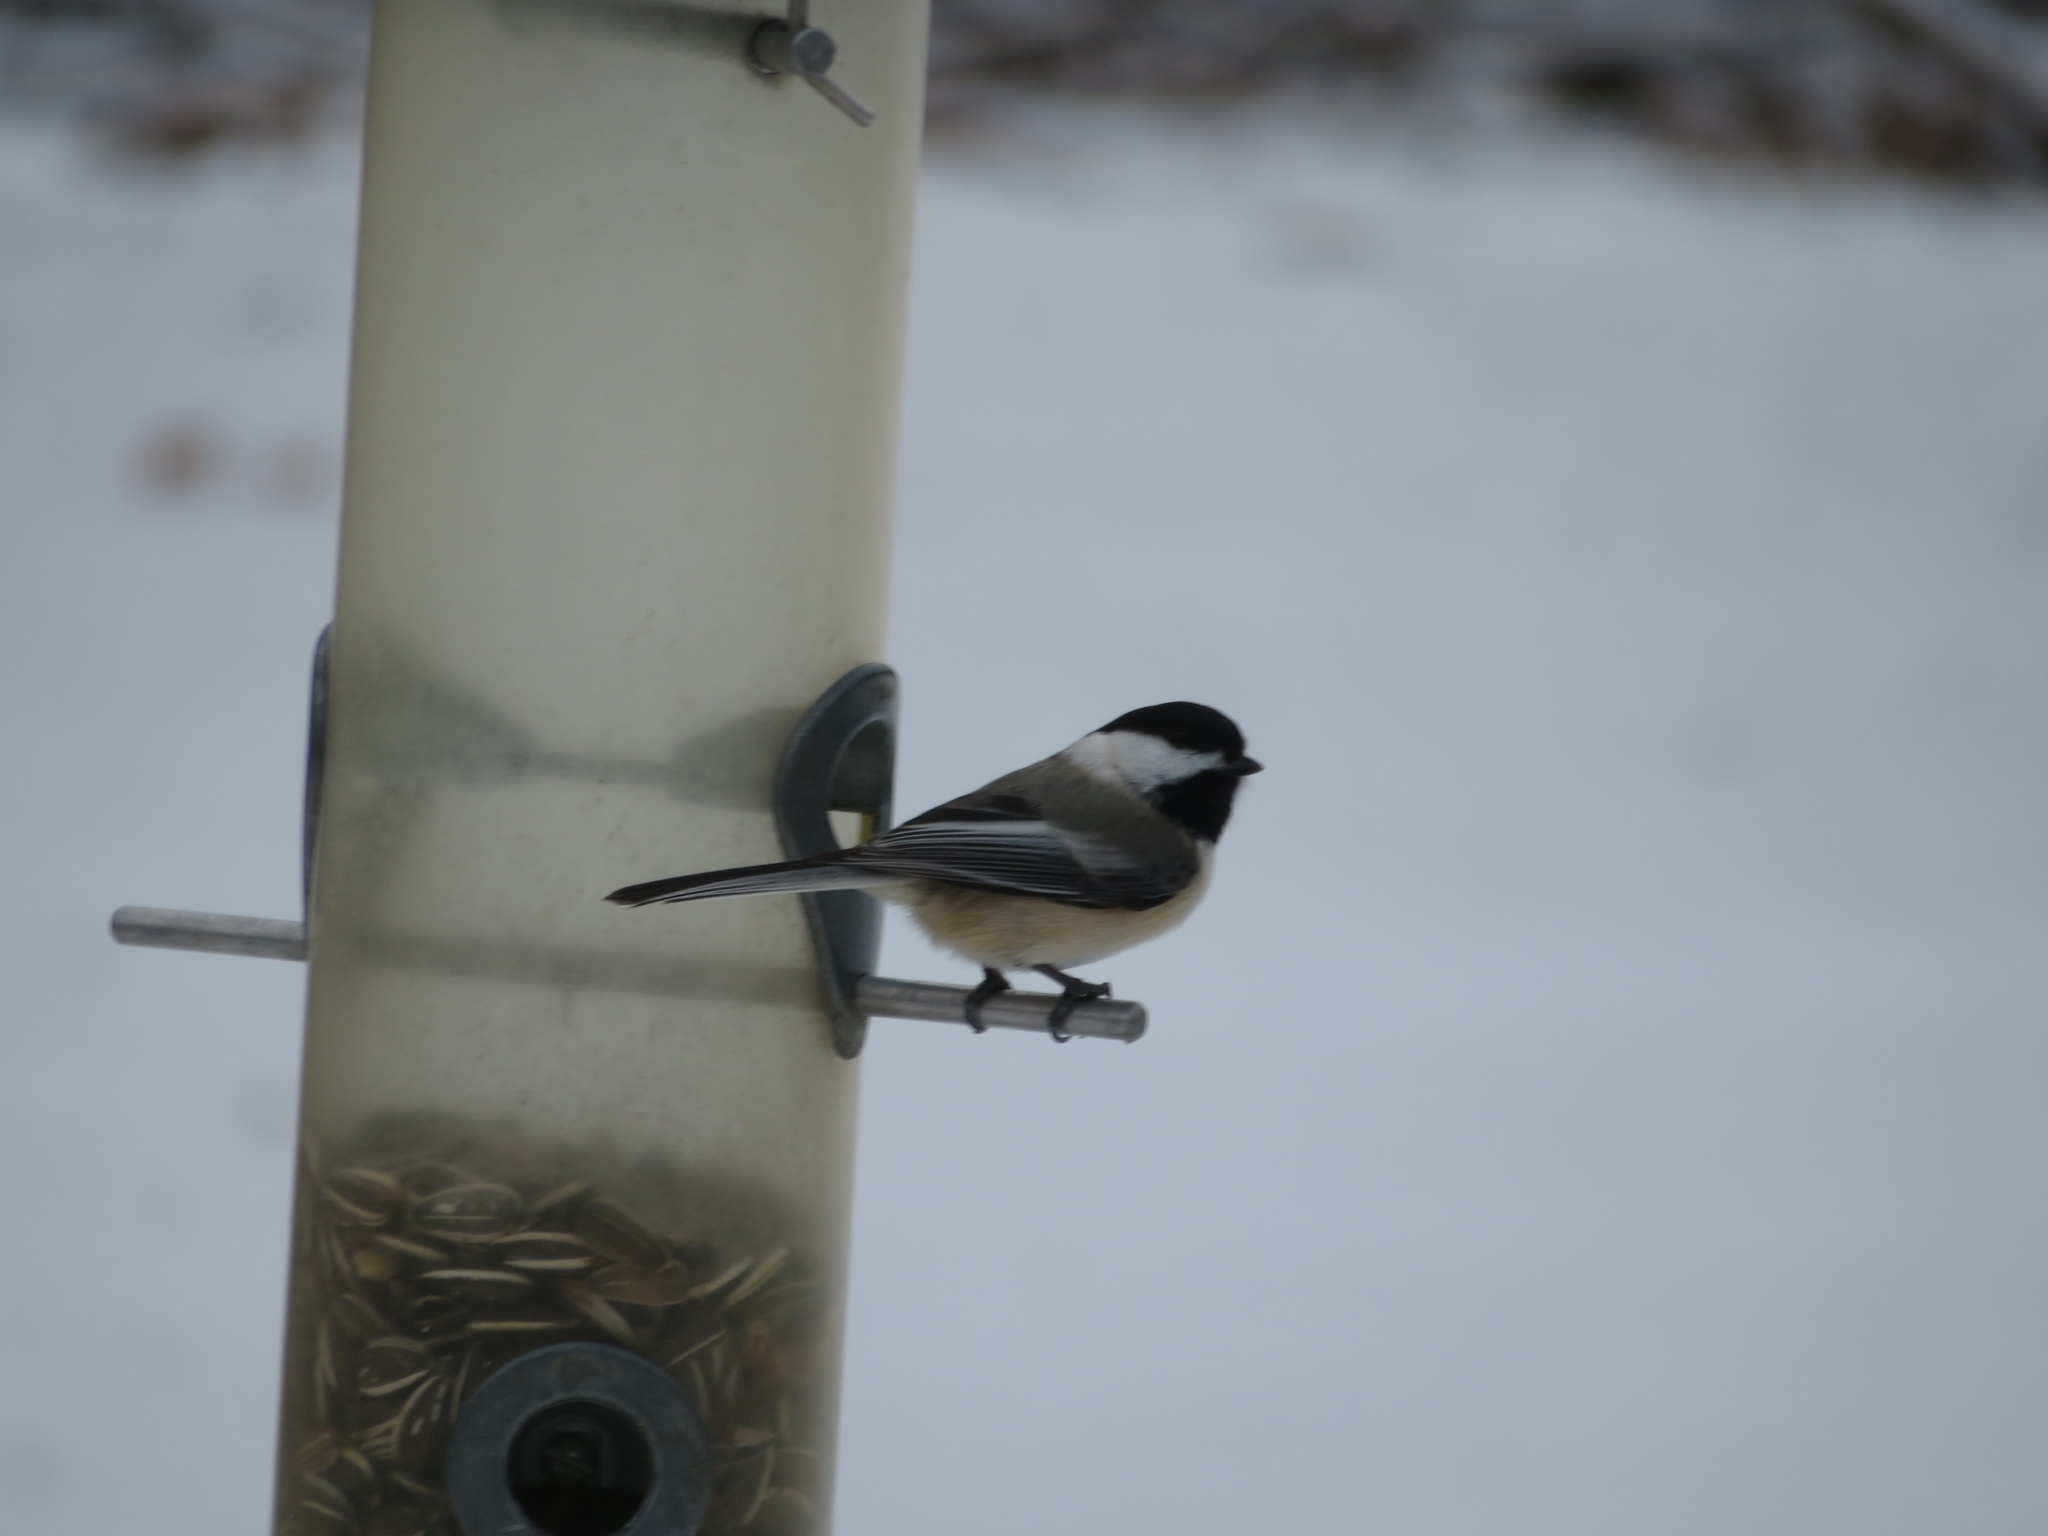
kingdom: Animalia
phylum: Chordata
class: Aves
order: Passeriformes
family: Paridae
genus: Poecile
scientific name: Poecile atricapillus
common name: Black-capped chickadee
